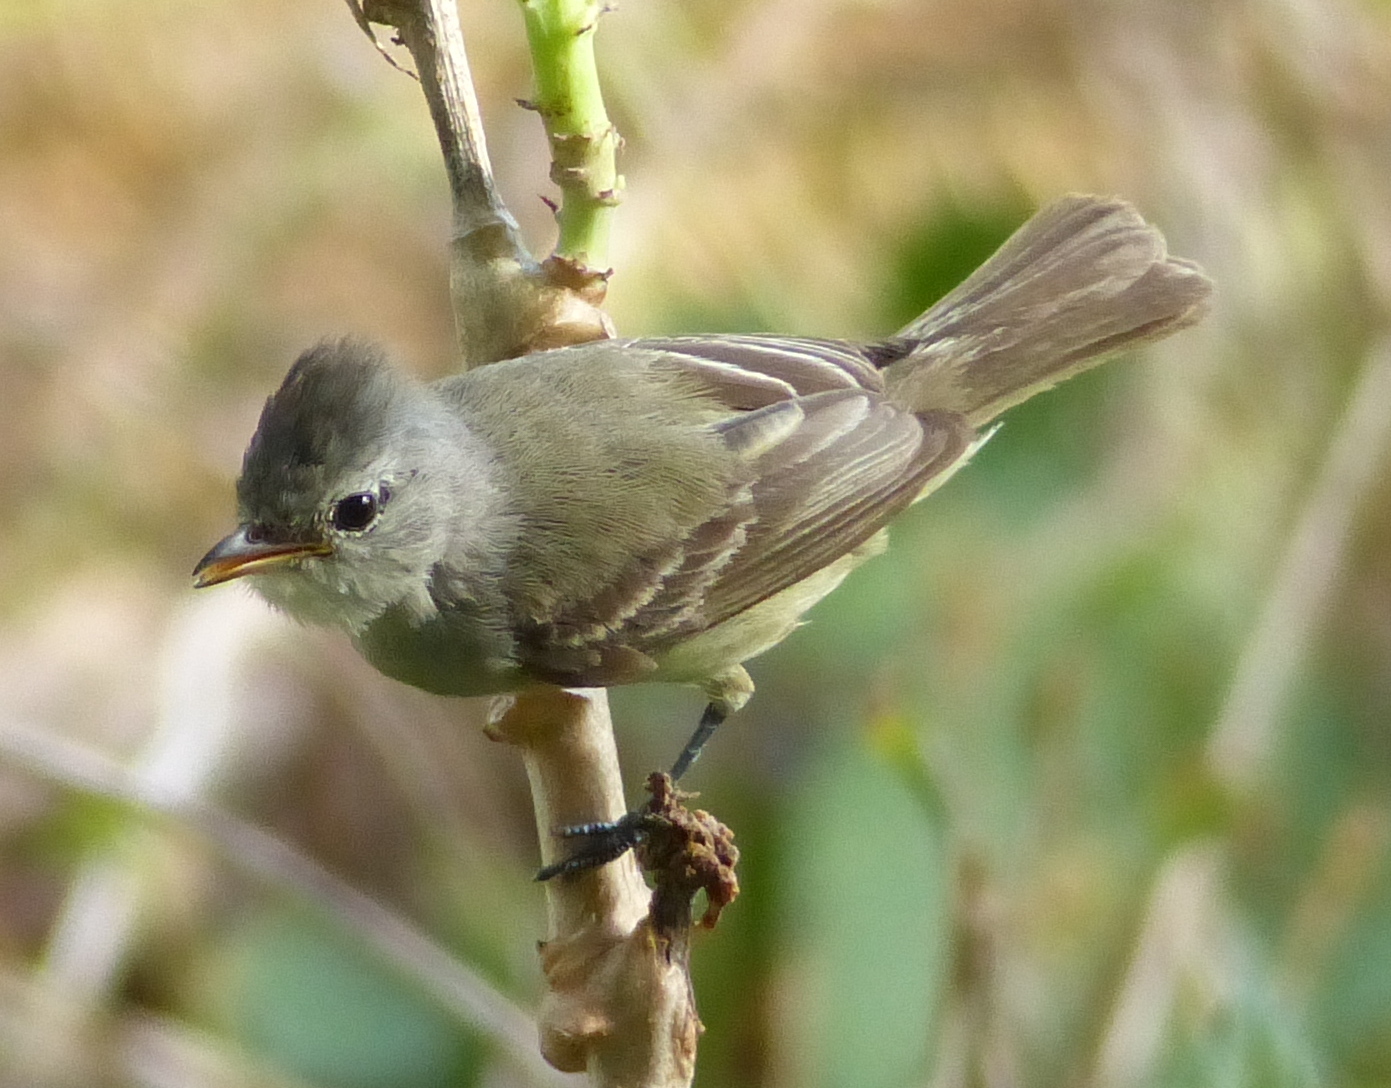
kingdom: Animalia
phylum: Chordata
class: Aves
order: Passeriformes
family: Tyrannidae
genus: Camptostoma
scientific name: Camptostoma obsoletum
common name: Southern beardless-tyrannulet
